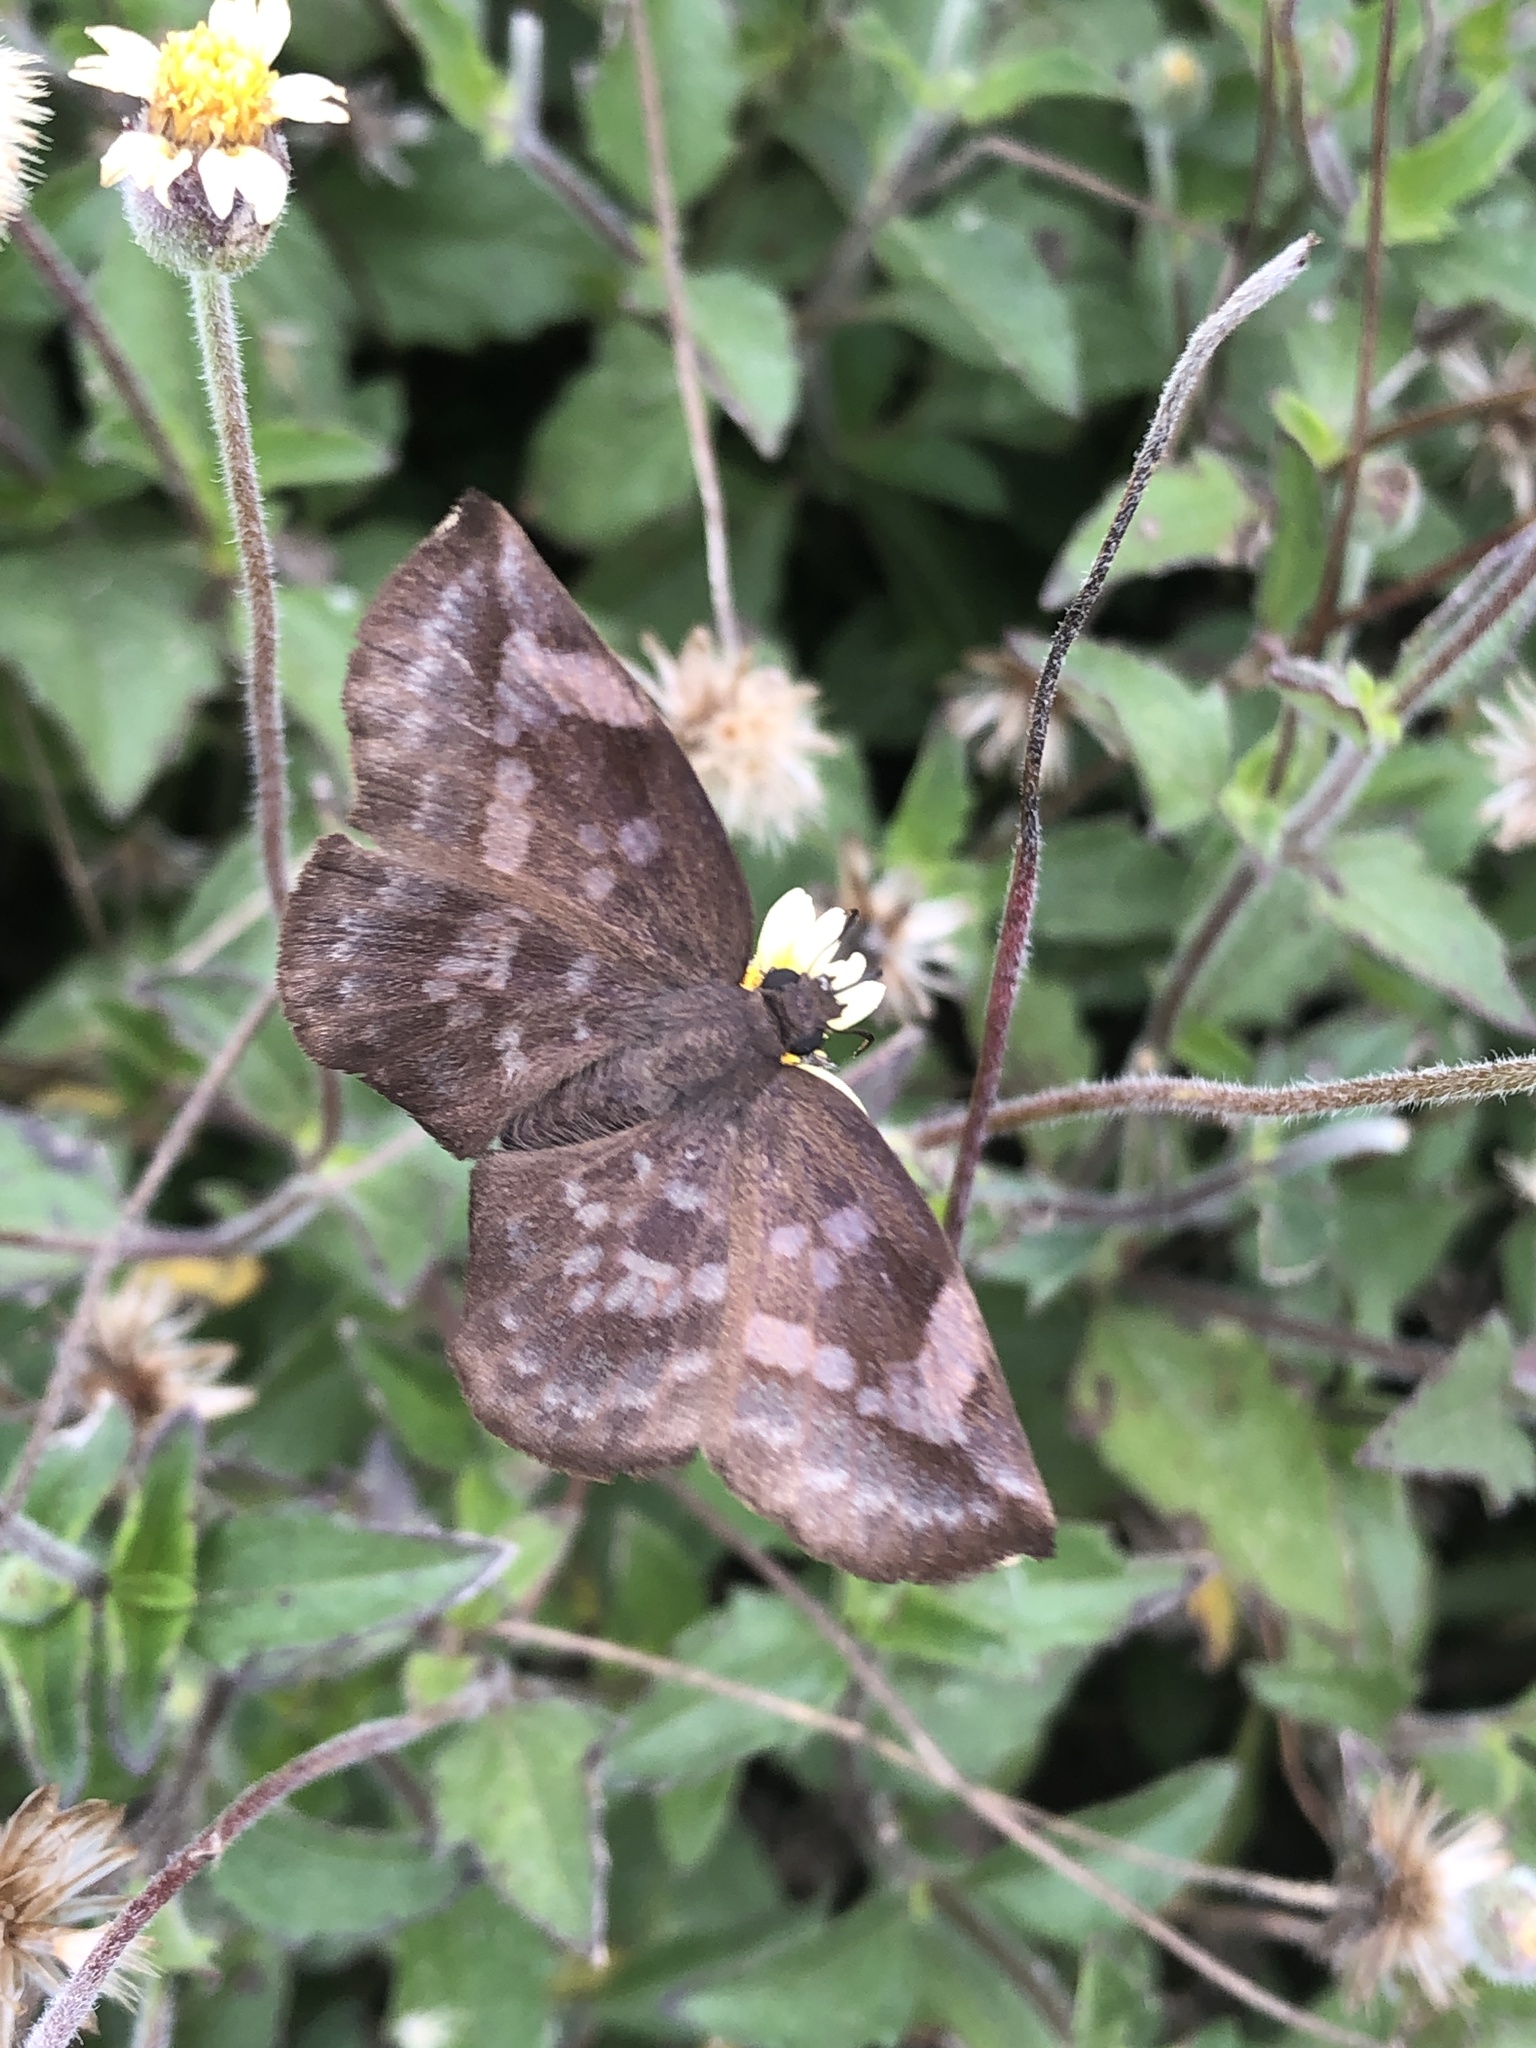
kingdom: Animalia
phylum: Arthropoda
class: Insecta
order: Lepidoptera
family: Hesperiidae
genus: Achlyodes
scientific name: Achlyodes thraso
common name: Sickle-winged skipper
